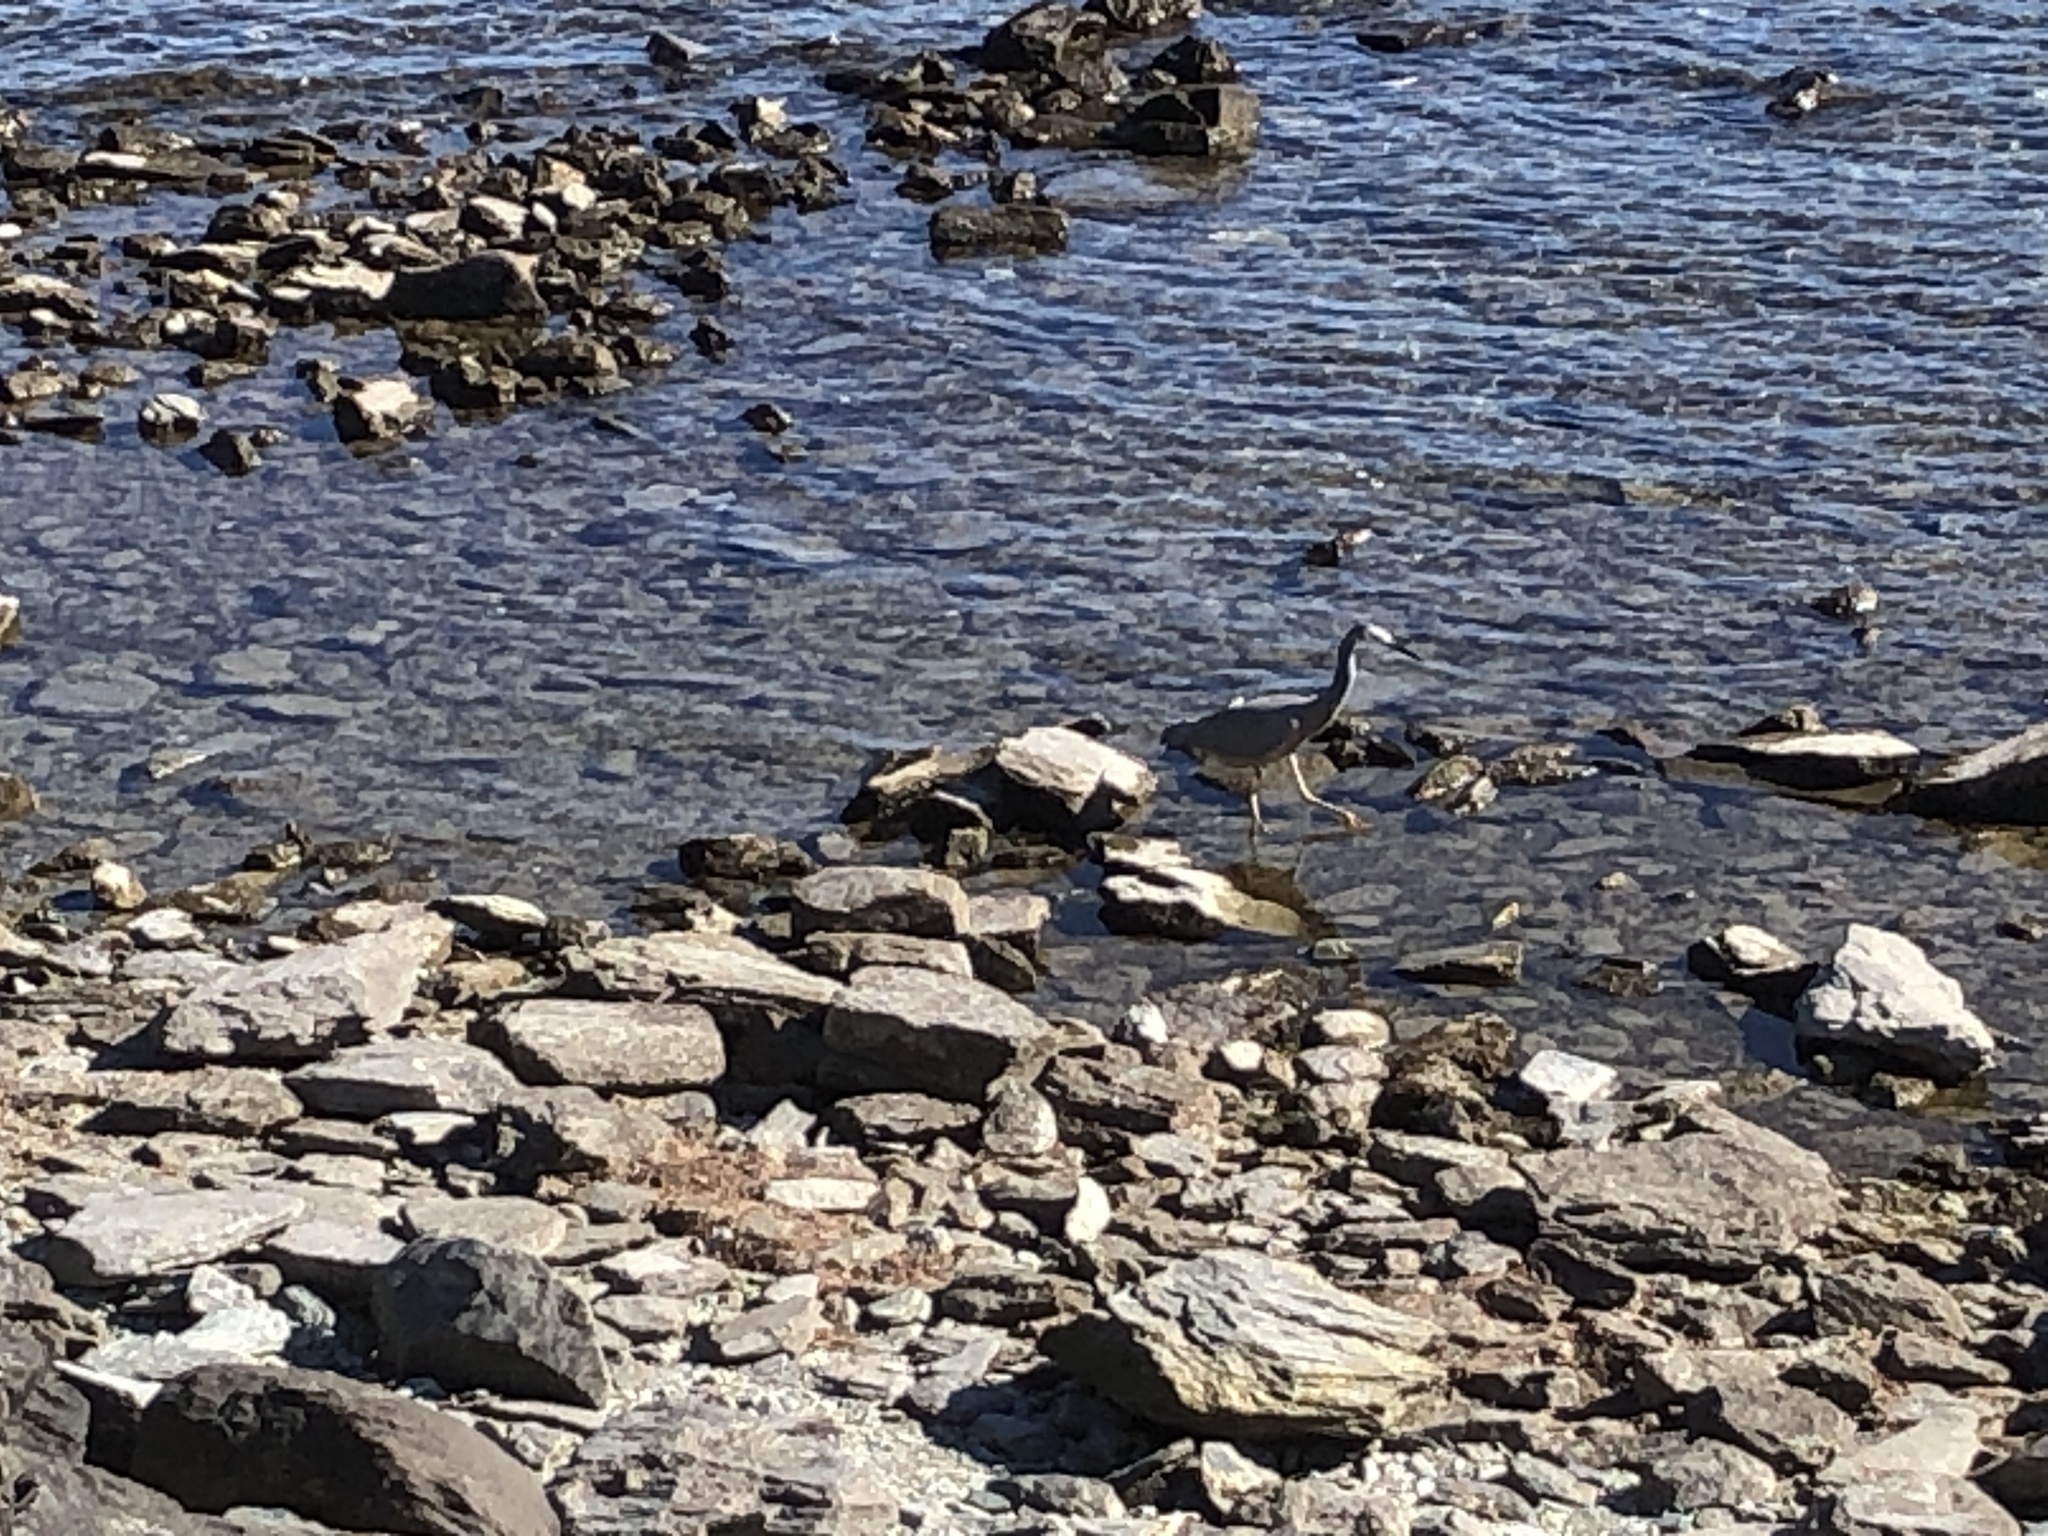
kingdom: Animalia
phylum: Chordata
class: Aves
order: Pelecaniformes
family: Ardeidae
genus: Egretta
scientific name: Egretta novaehollandiae
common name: White-faced heron
